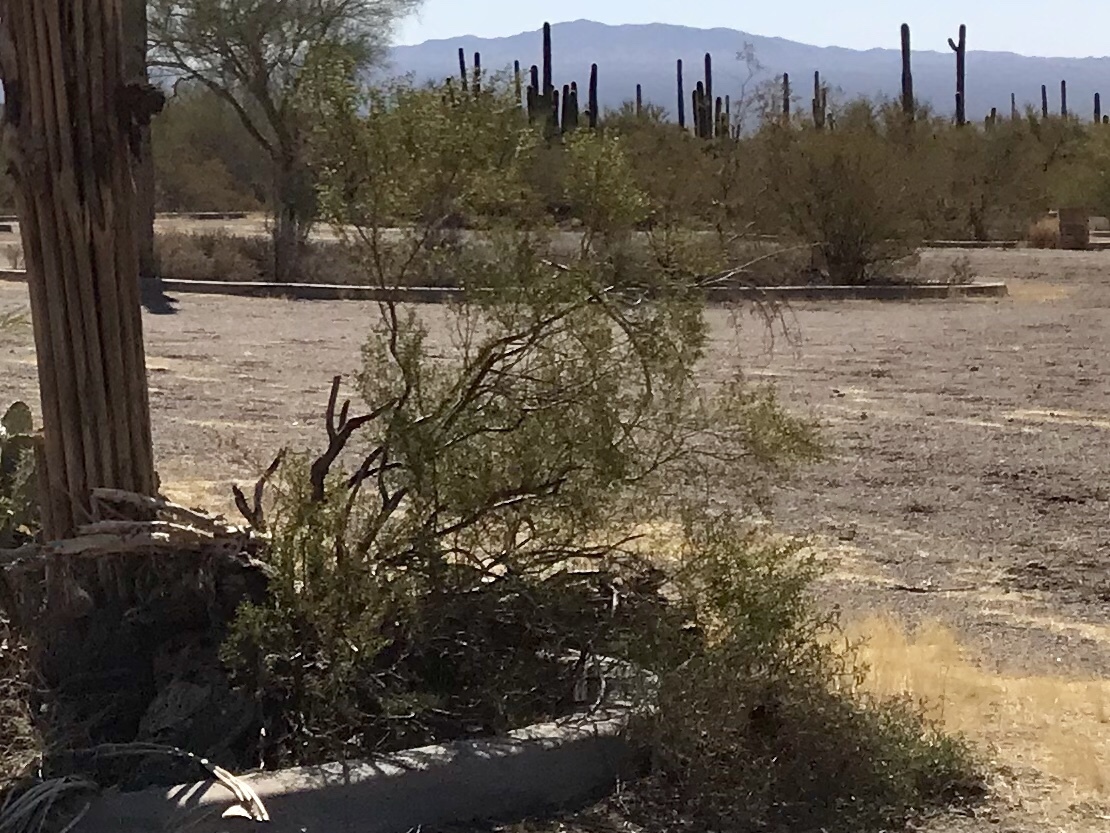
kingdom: Plantae
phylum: Tracheophyta
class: Magnoliopsida
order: Zygophyllales
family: Zygophyllaceae
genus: Larrea
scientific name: Larrea tridentata
